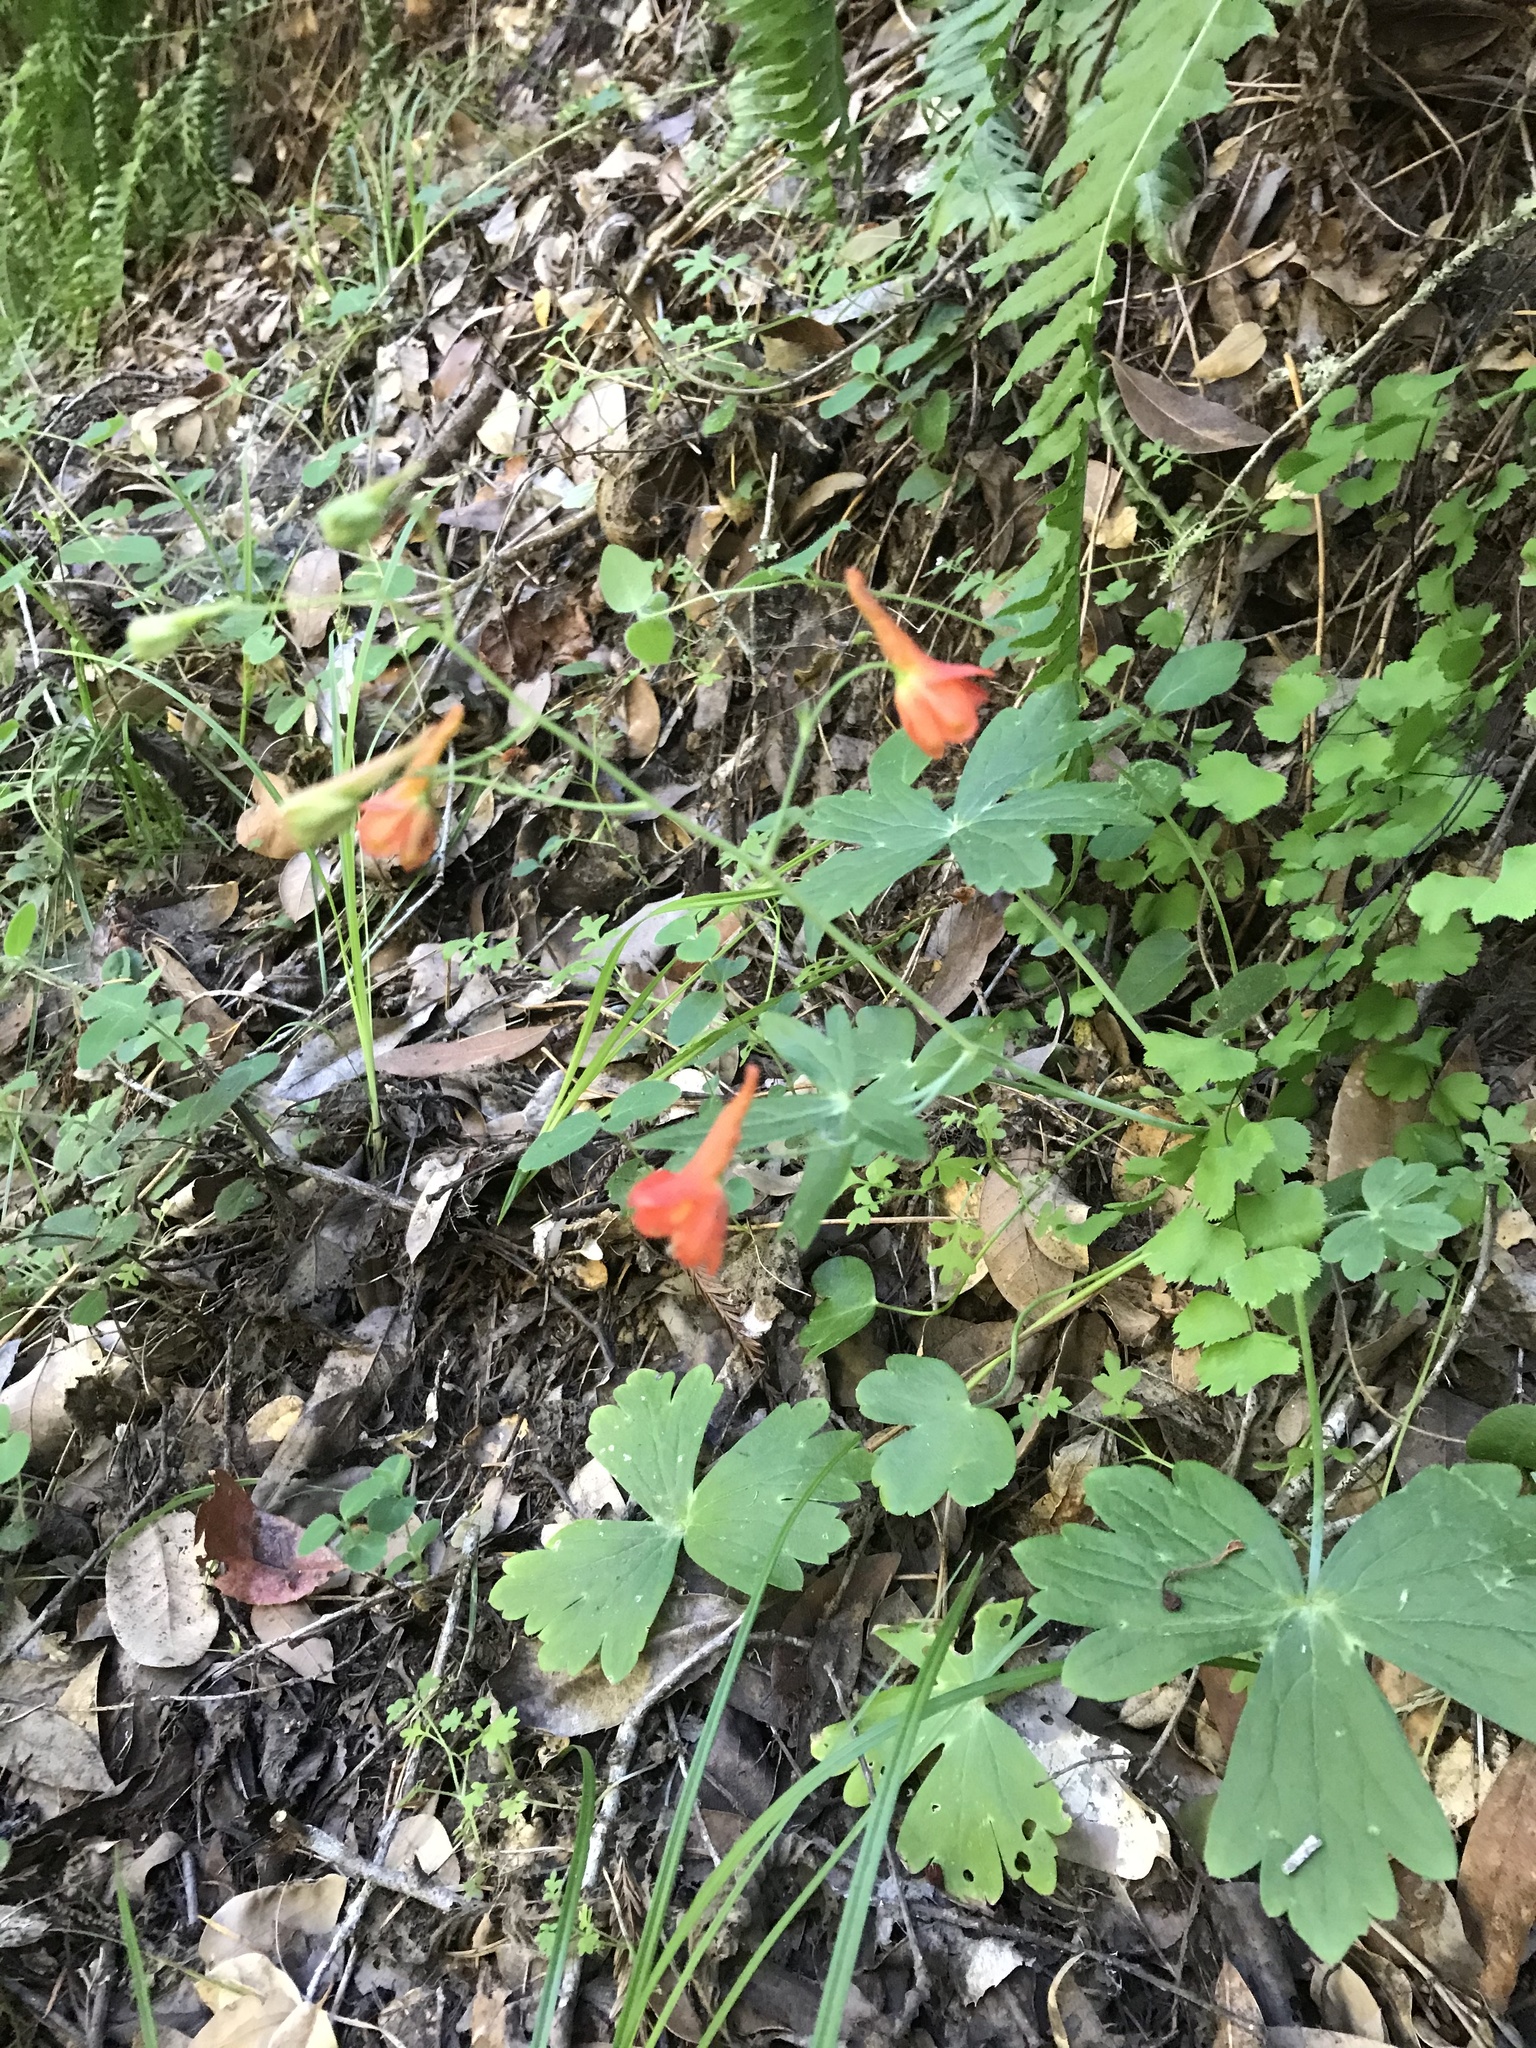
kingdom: Plantae
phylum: Tracheophyta
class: Magnoliopsida
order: Ranunculales
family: Ranunculaceae
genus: Delphinium
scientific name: Delphinium nudicaule
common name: Red larkspur
